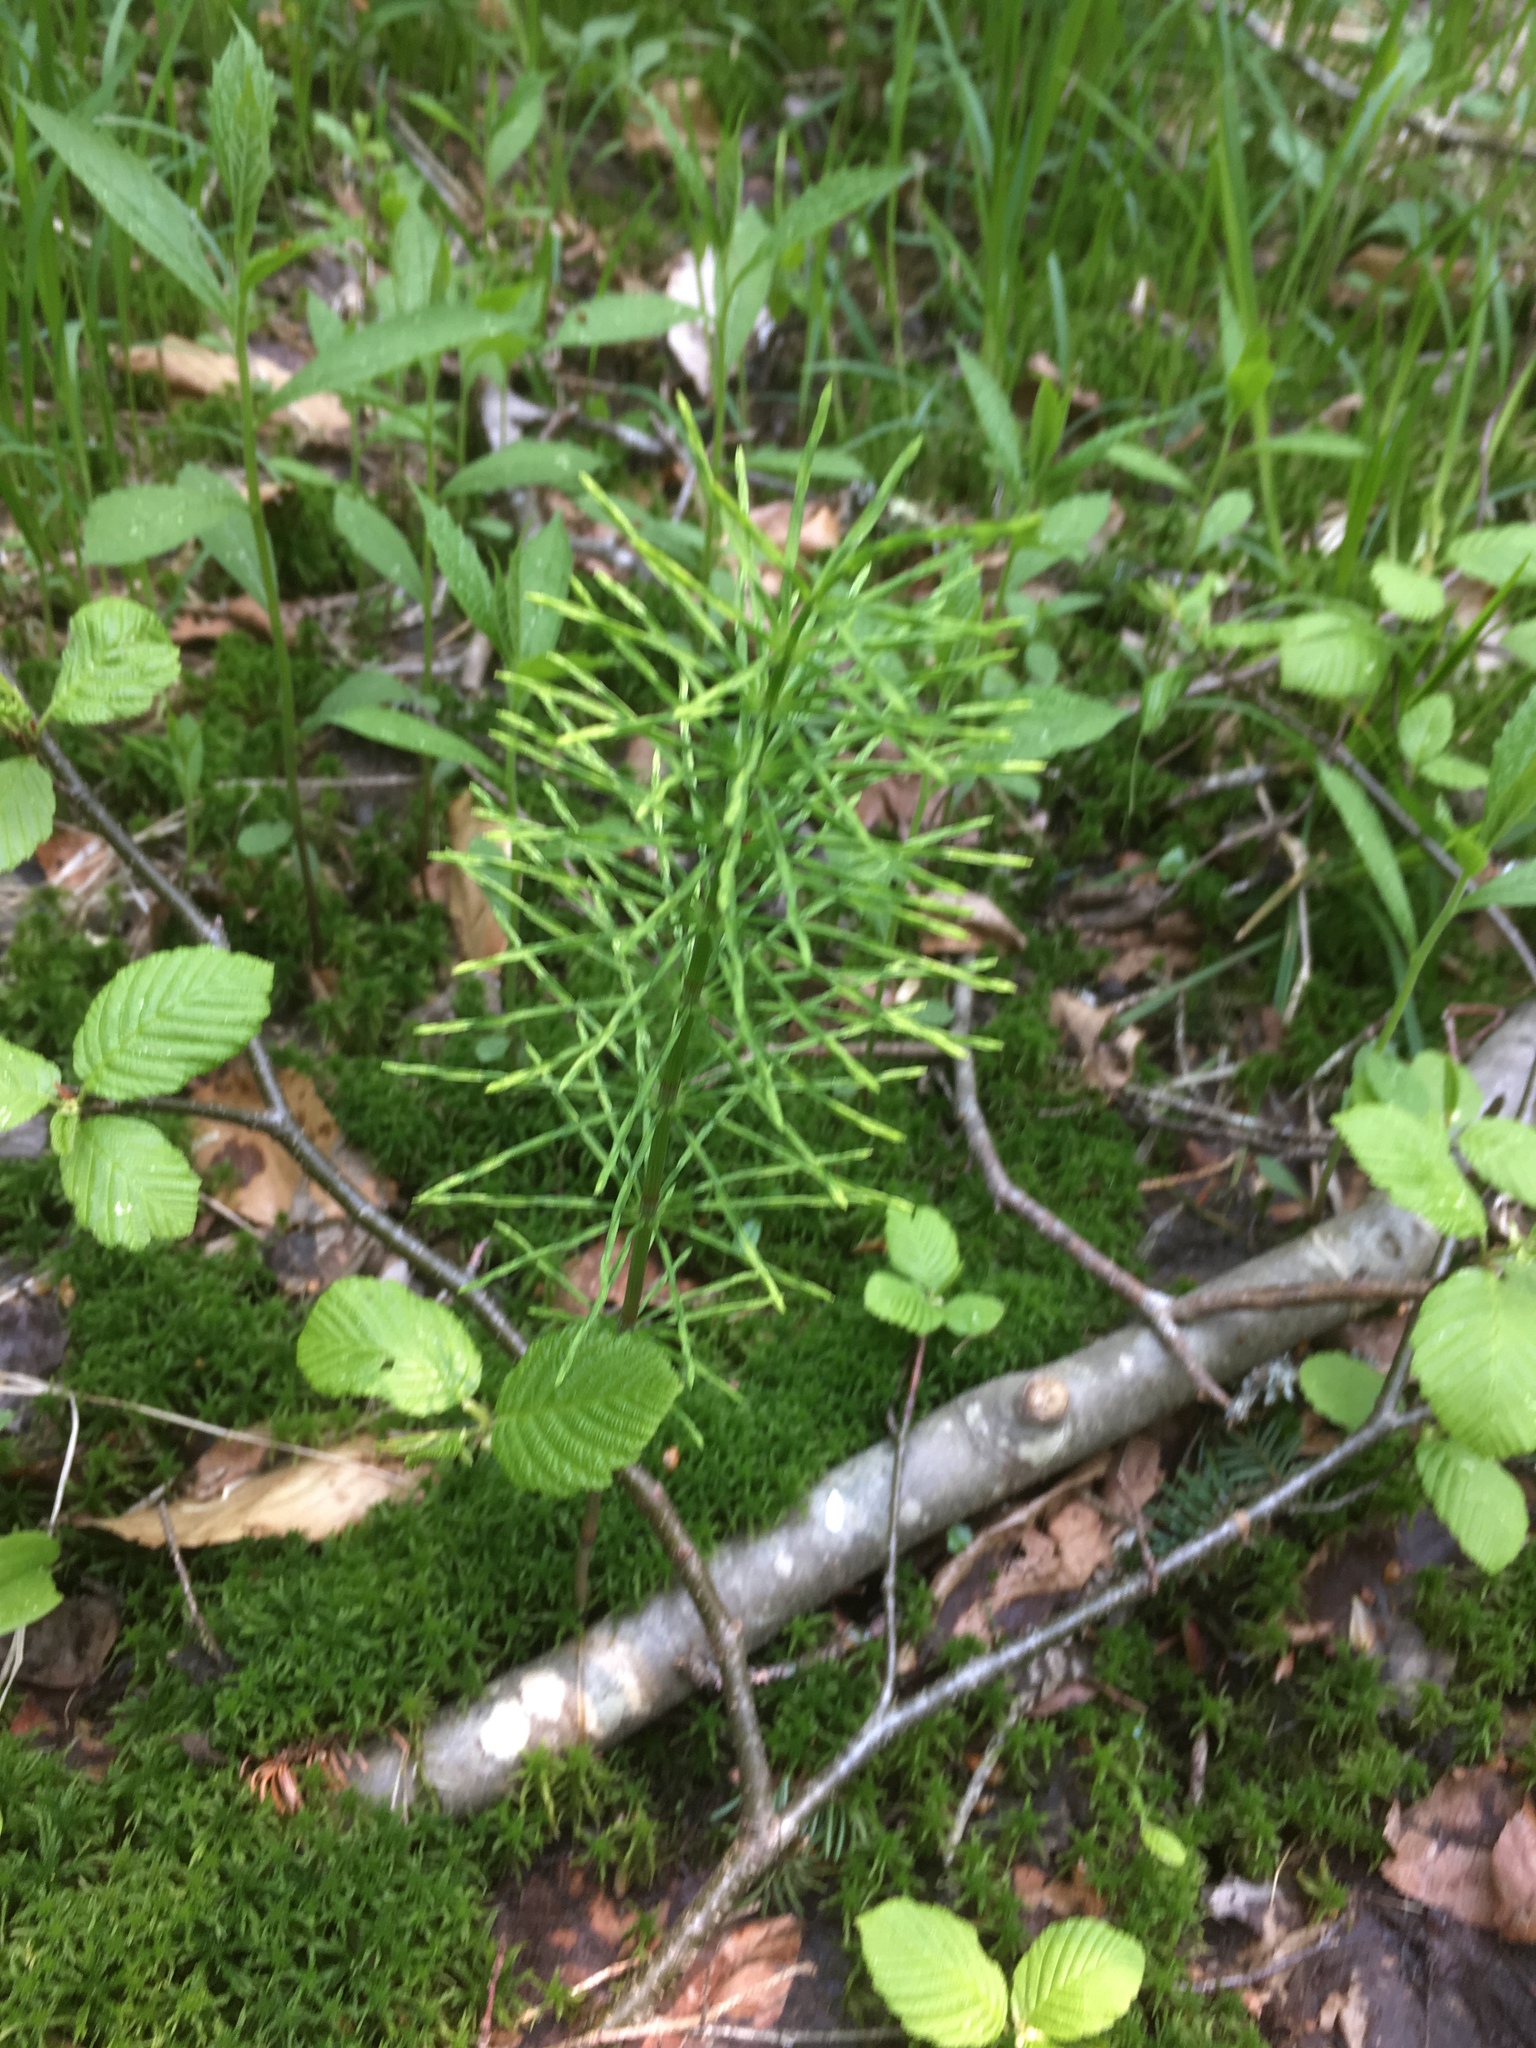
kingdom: Plantae
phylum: Tracheophyta
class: Polypodiopsida
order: Equisetales
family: Equisetaceae
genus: Equisetum
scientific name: Equisetum arvense
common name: Field horsetail
